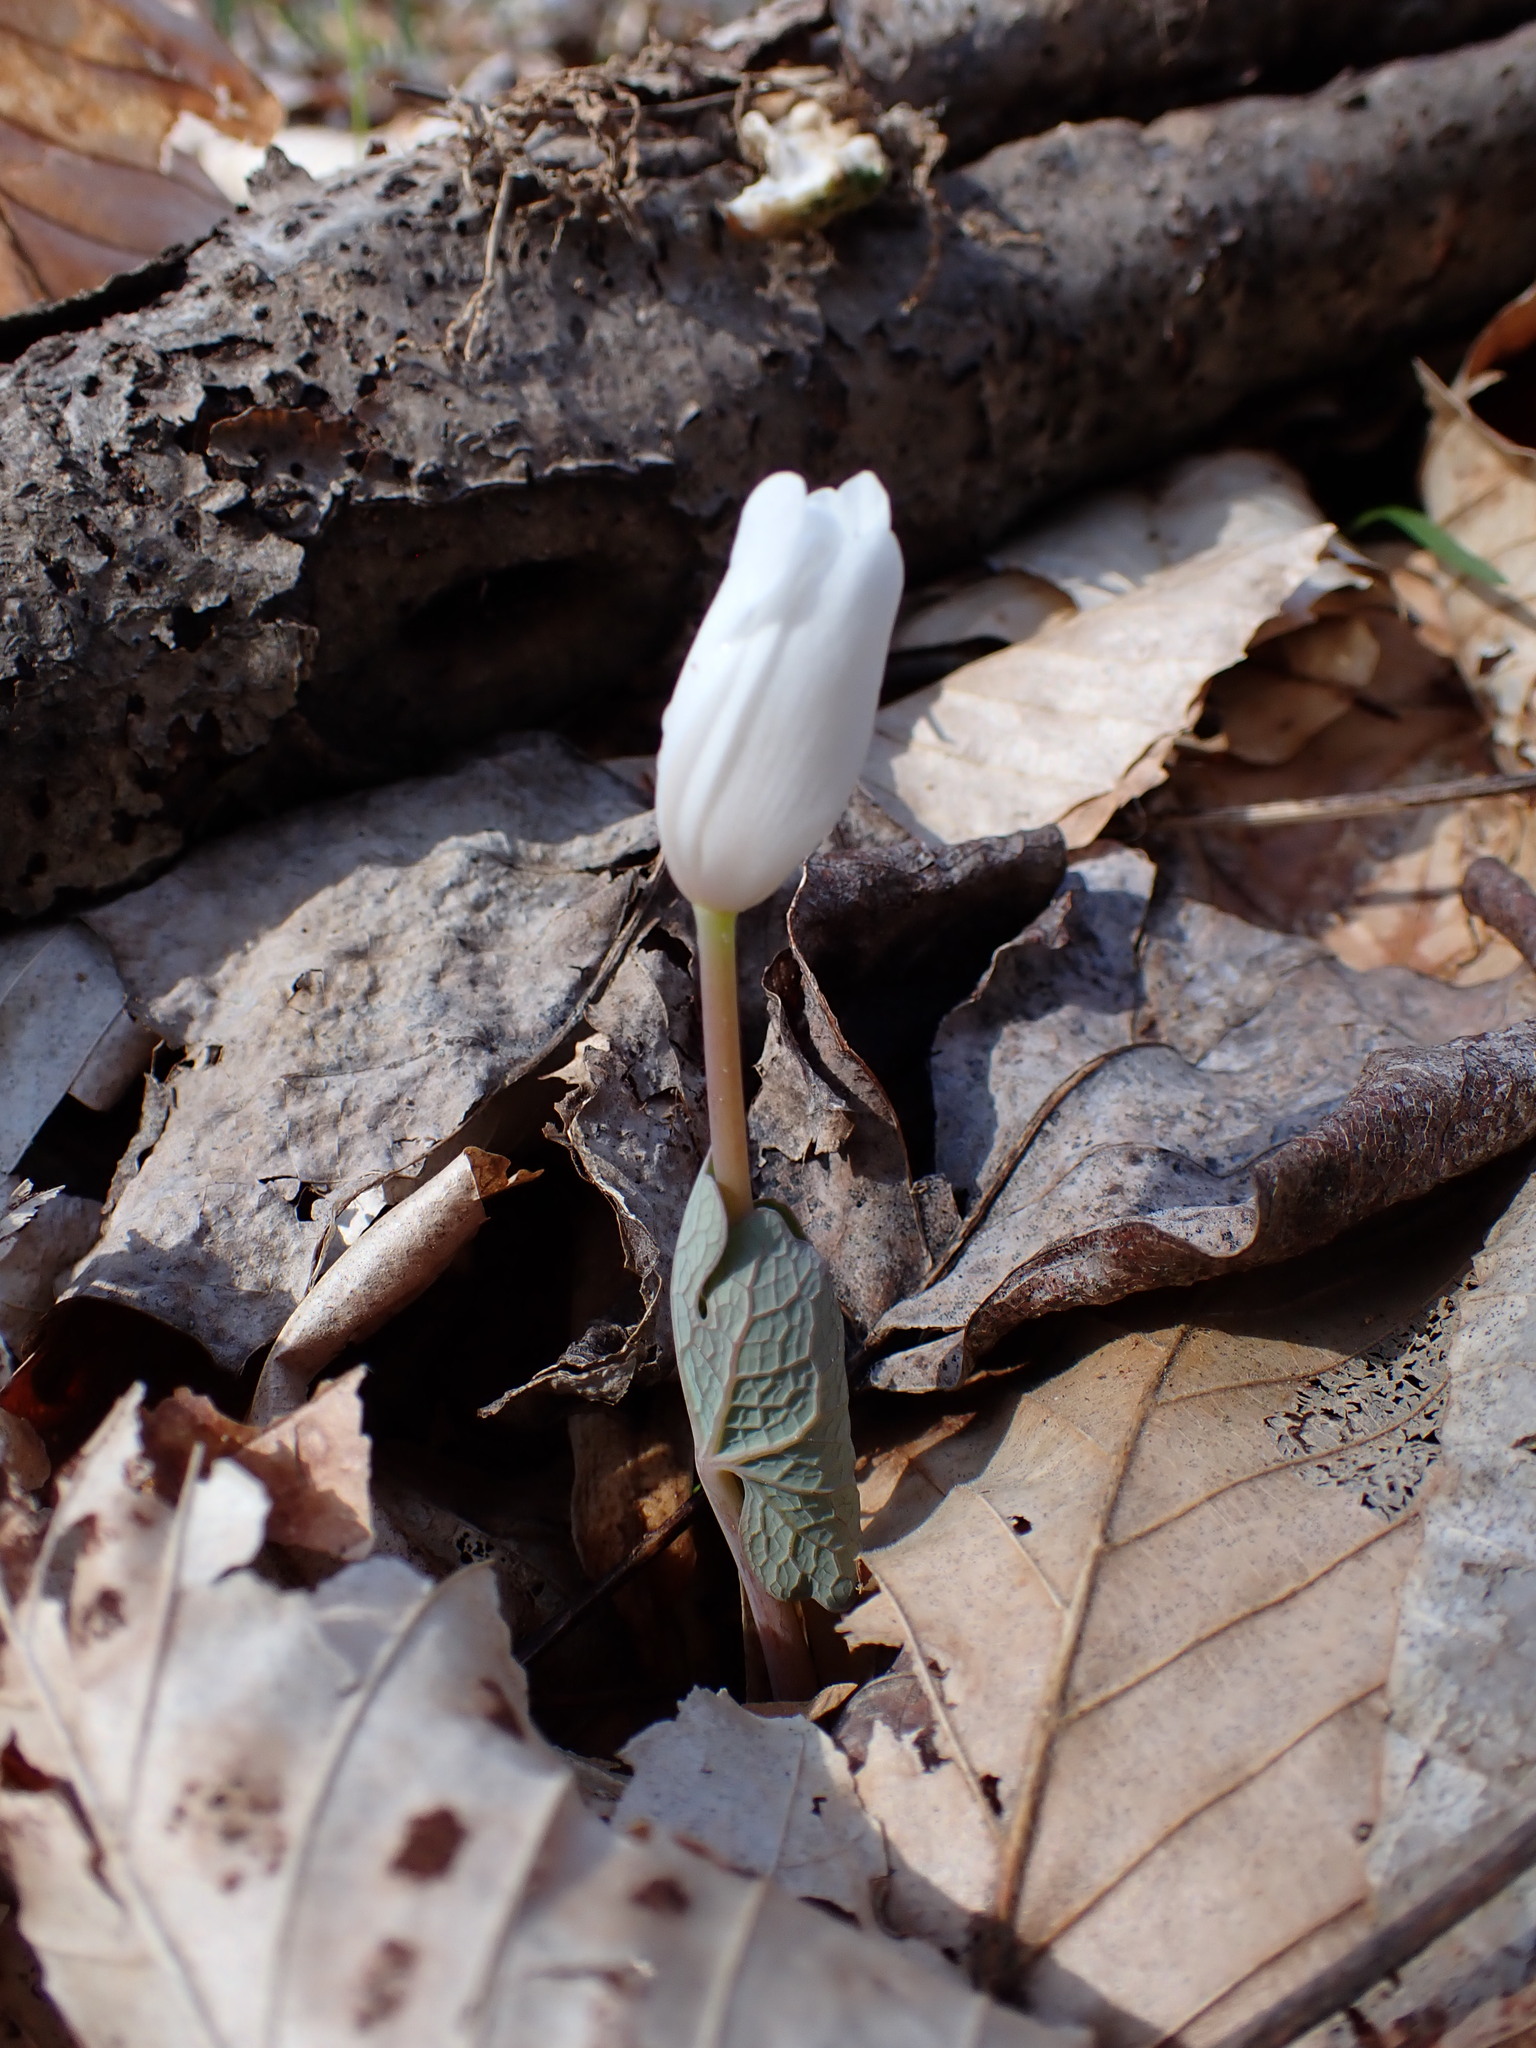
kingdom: Plantae
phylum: Tracheophyta
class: Magnoliopsida
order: Ranunculales
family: Papaveraceae
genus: Sanguinaria
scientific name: Sanguinaria canadensis
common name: Bloodroot
